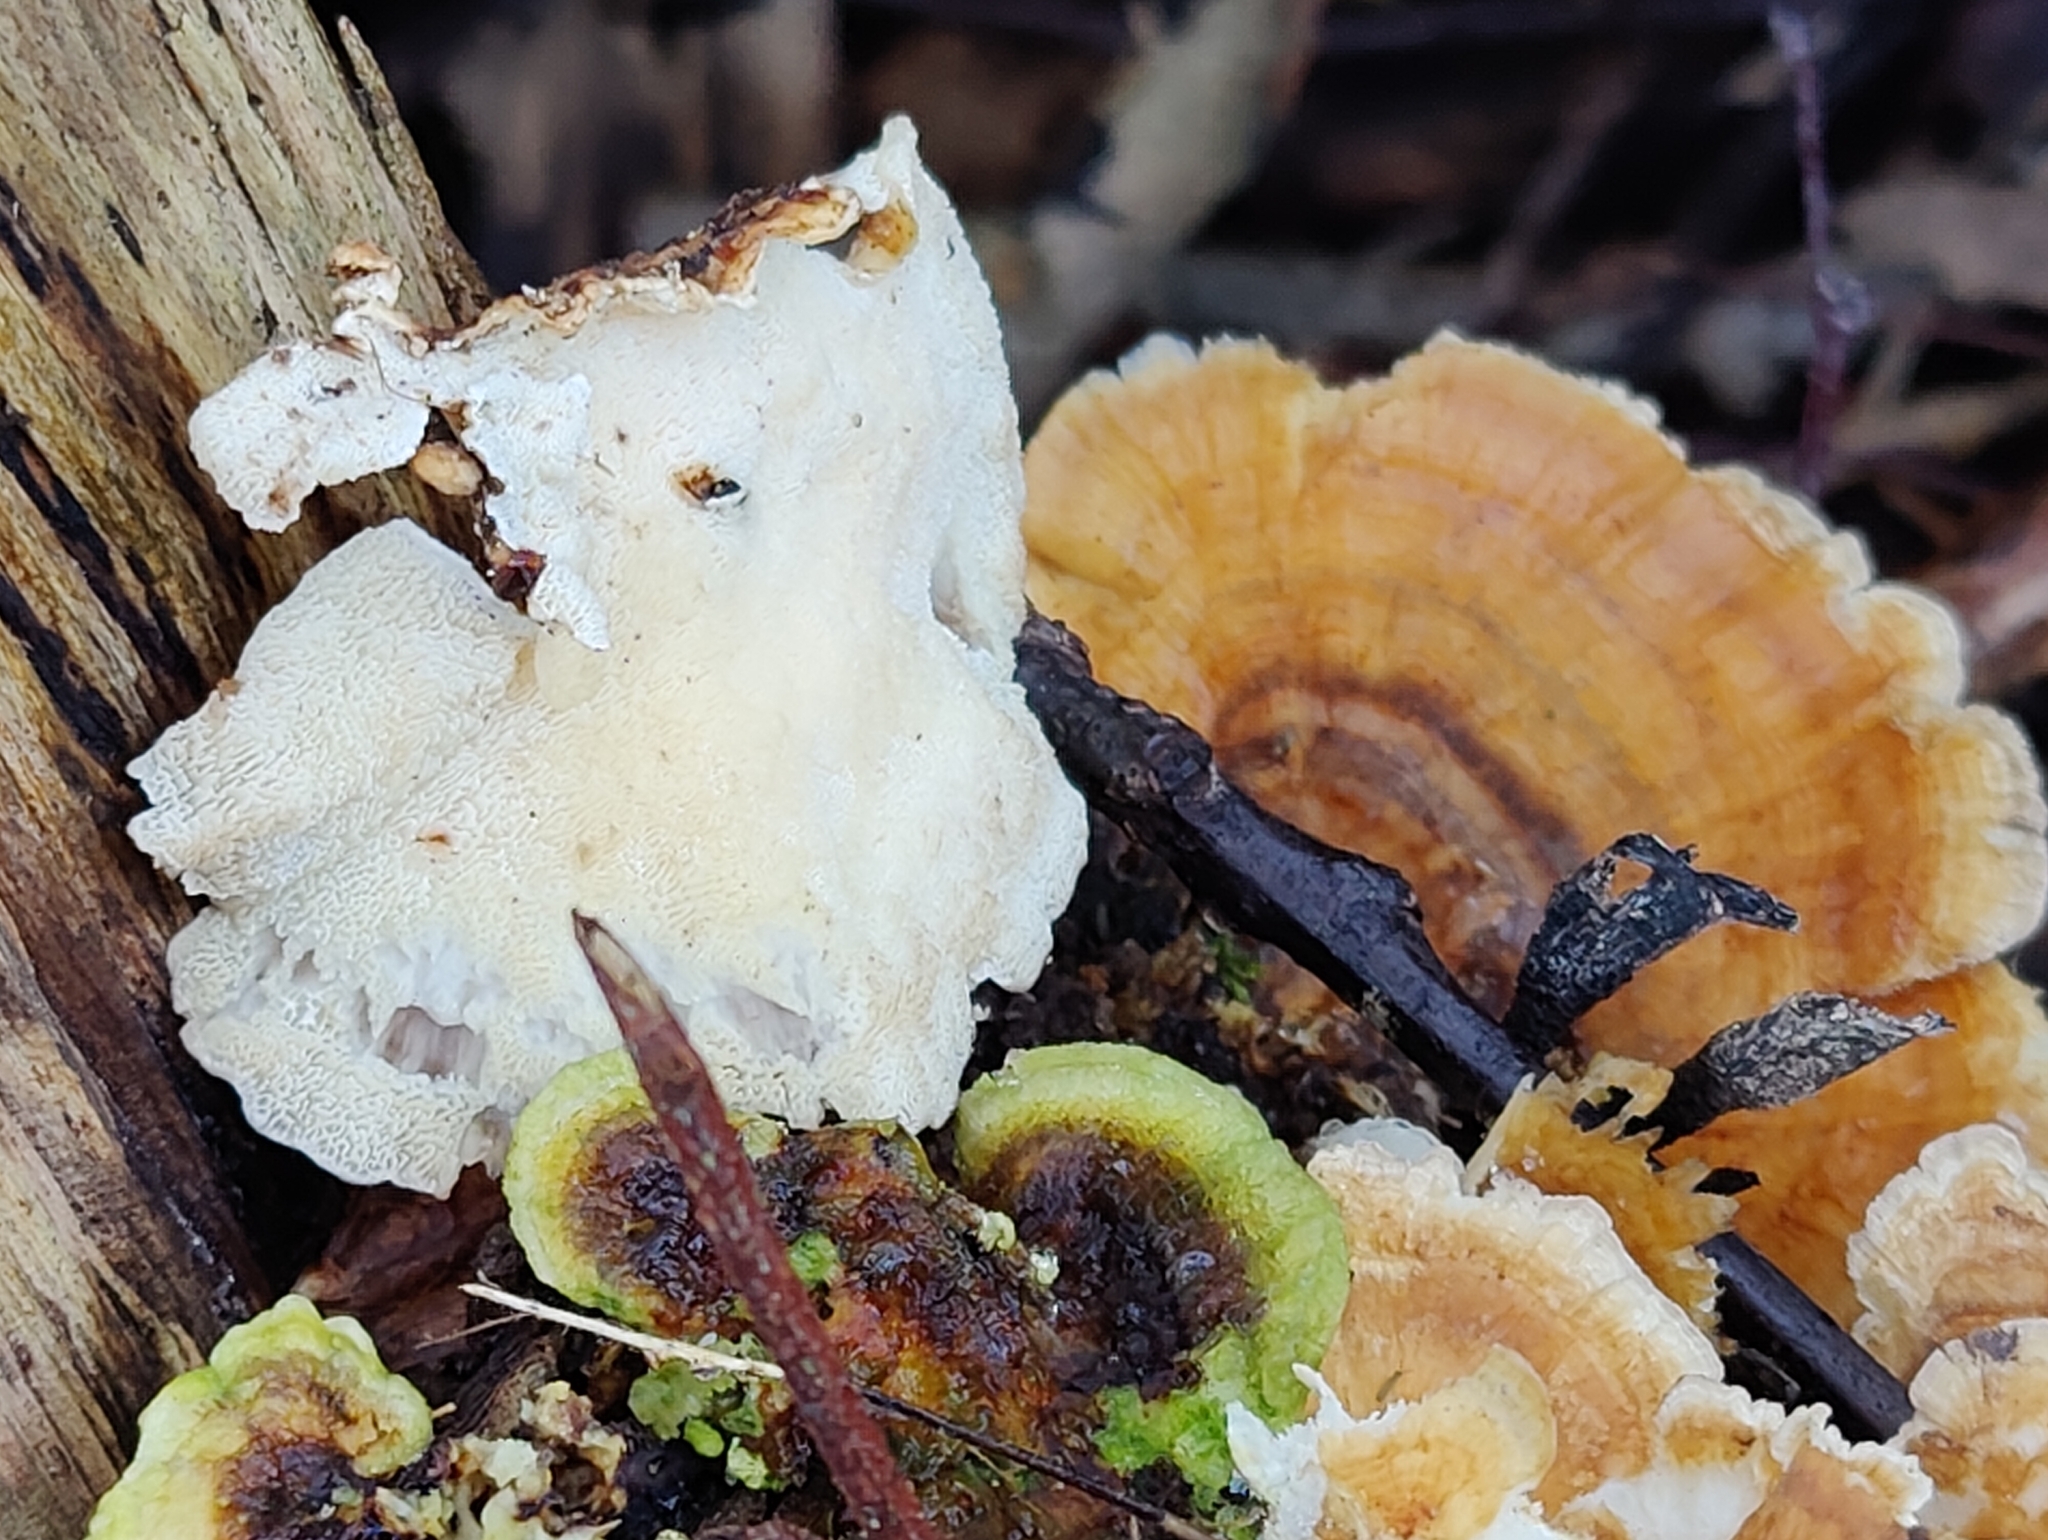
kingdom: Fungi
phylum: Basidiomycota
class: Agaricomycetes
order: Polyporales
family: Polyporaceae
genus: Trametes
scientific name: Trametes ochracea
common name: Ochre bracket
